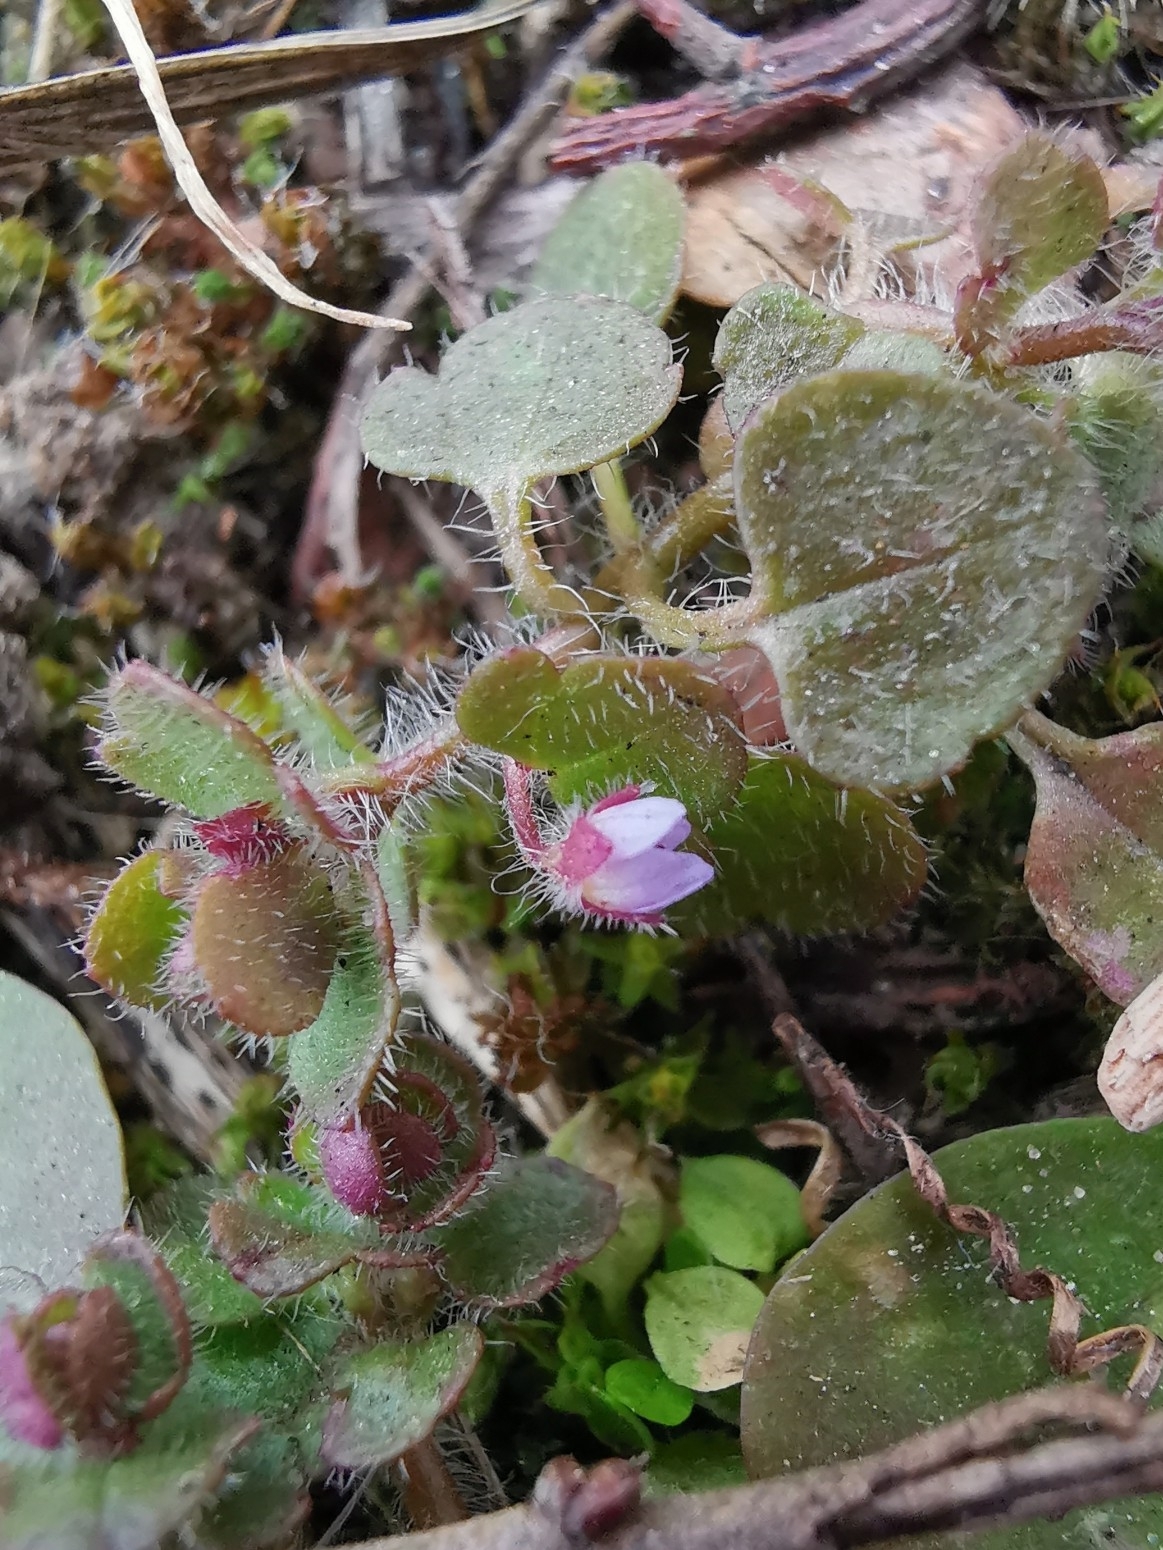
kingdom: Plantae
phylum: Tracheophyta
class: Magnoliopsida
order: Lamiales
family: Plantaginaceae
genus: Veronica
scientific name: Veronica sublobata
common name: False ivy-leaved speedwell
